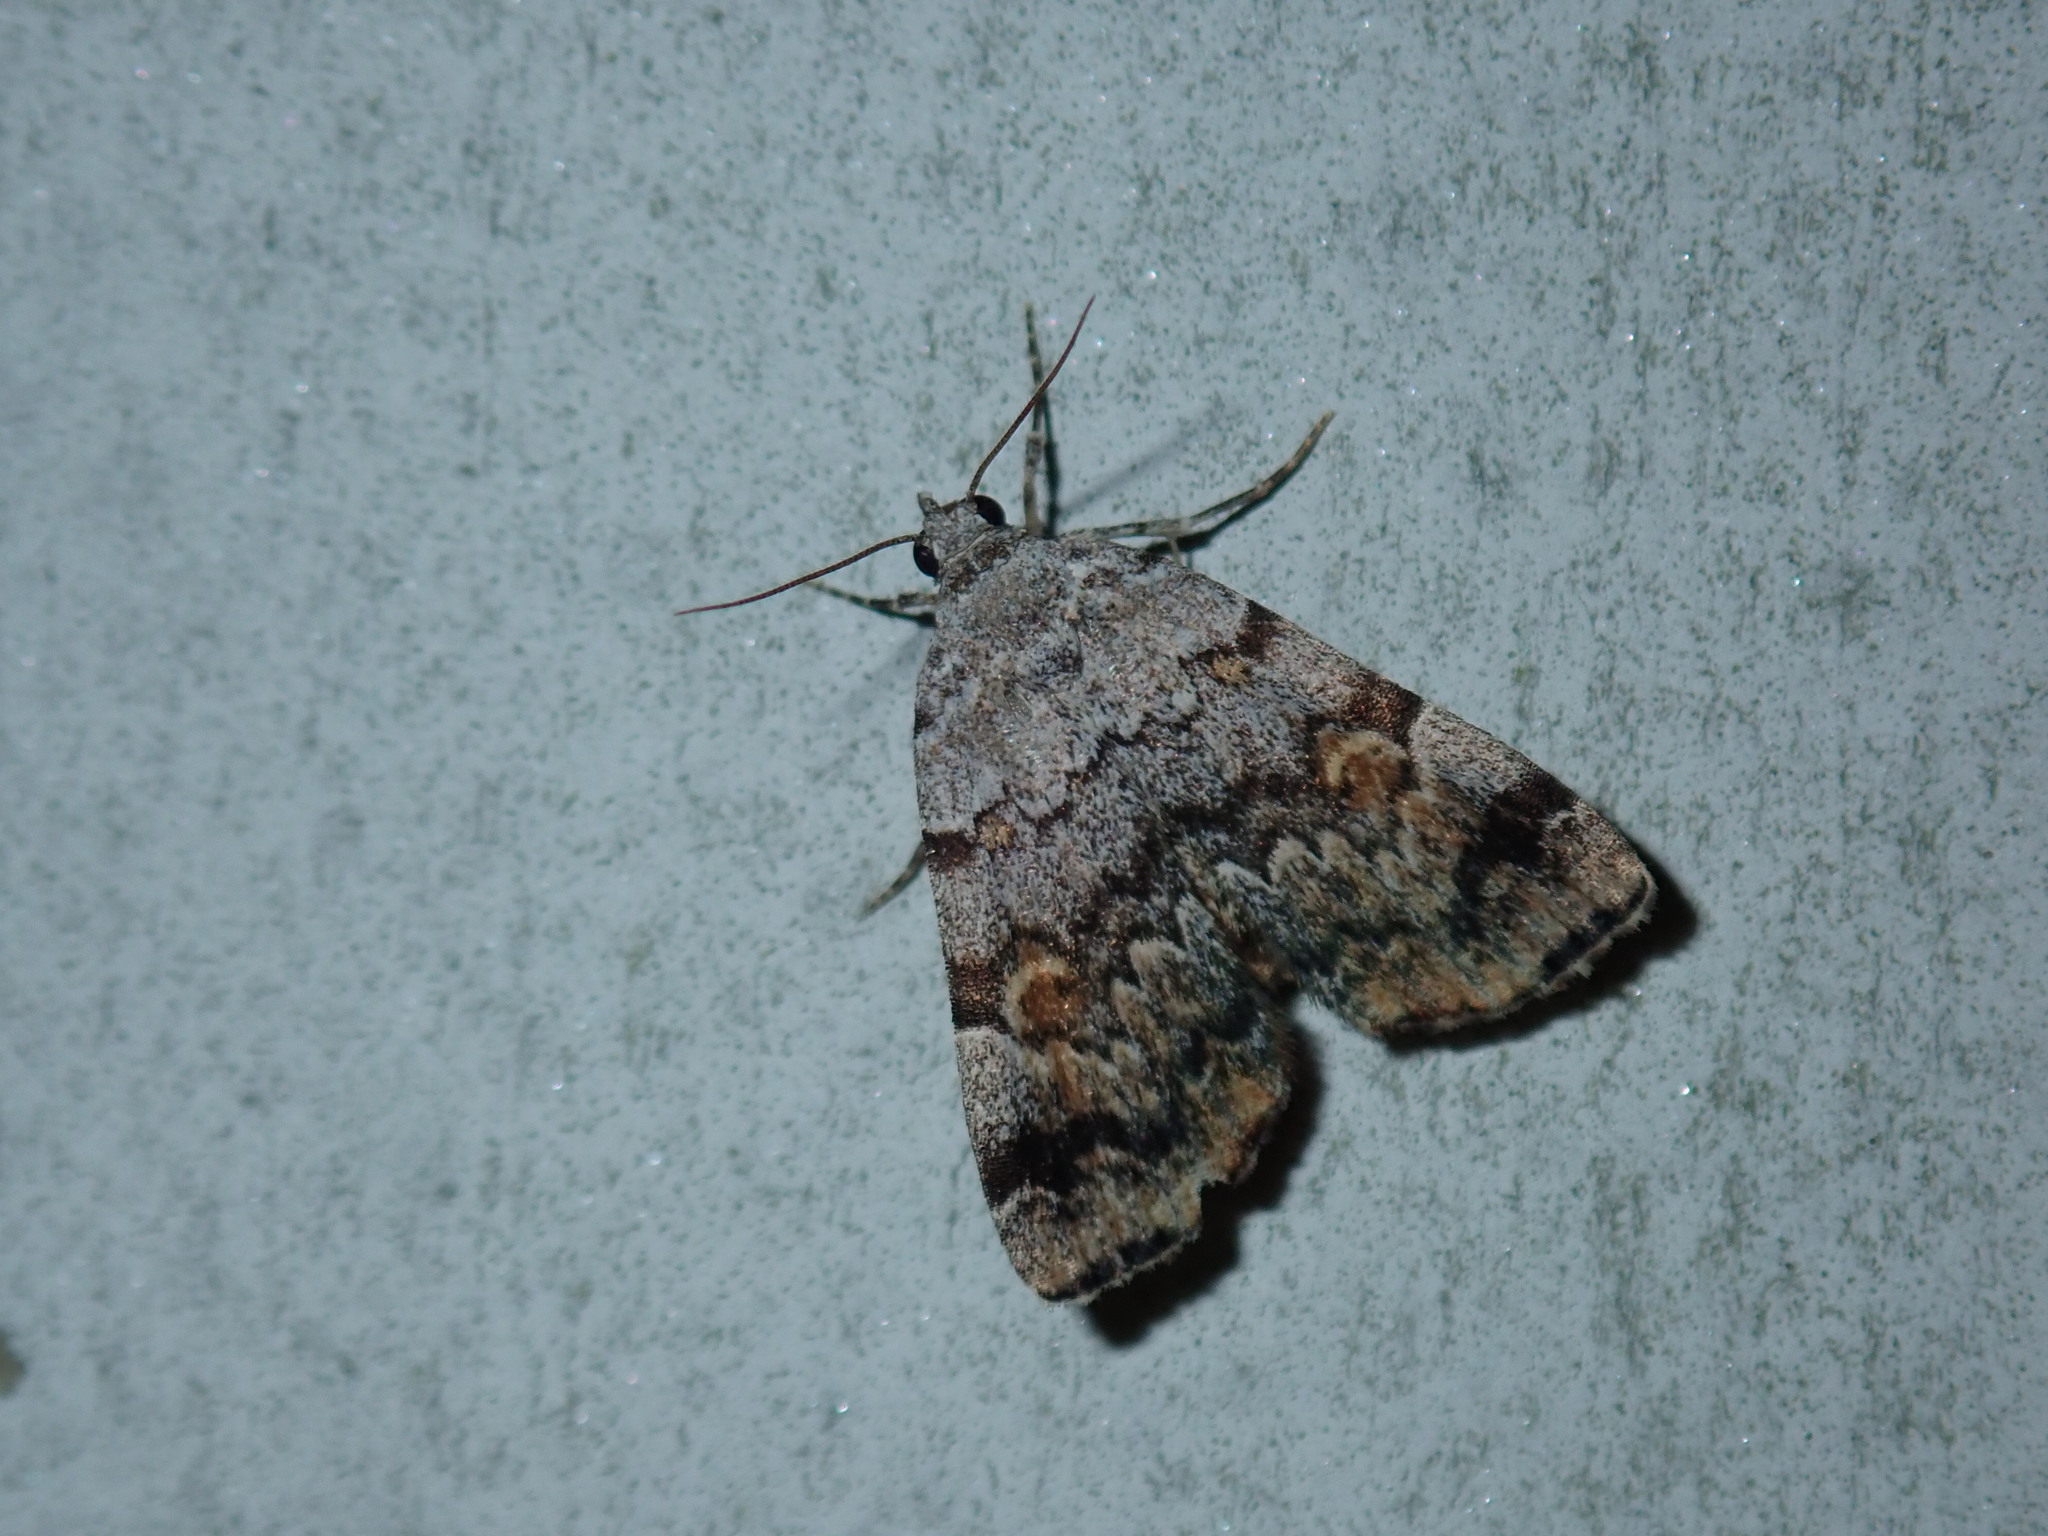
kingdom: Animalia
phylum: Arthropoda
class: Insecta
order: Lepidoptera
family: Erebidae
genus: Idia
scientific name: Idia americalis
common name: American idia moth
